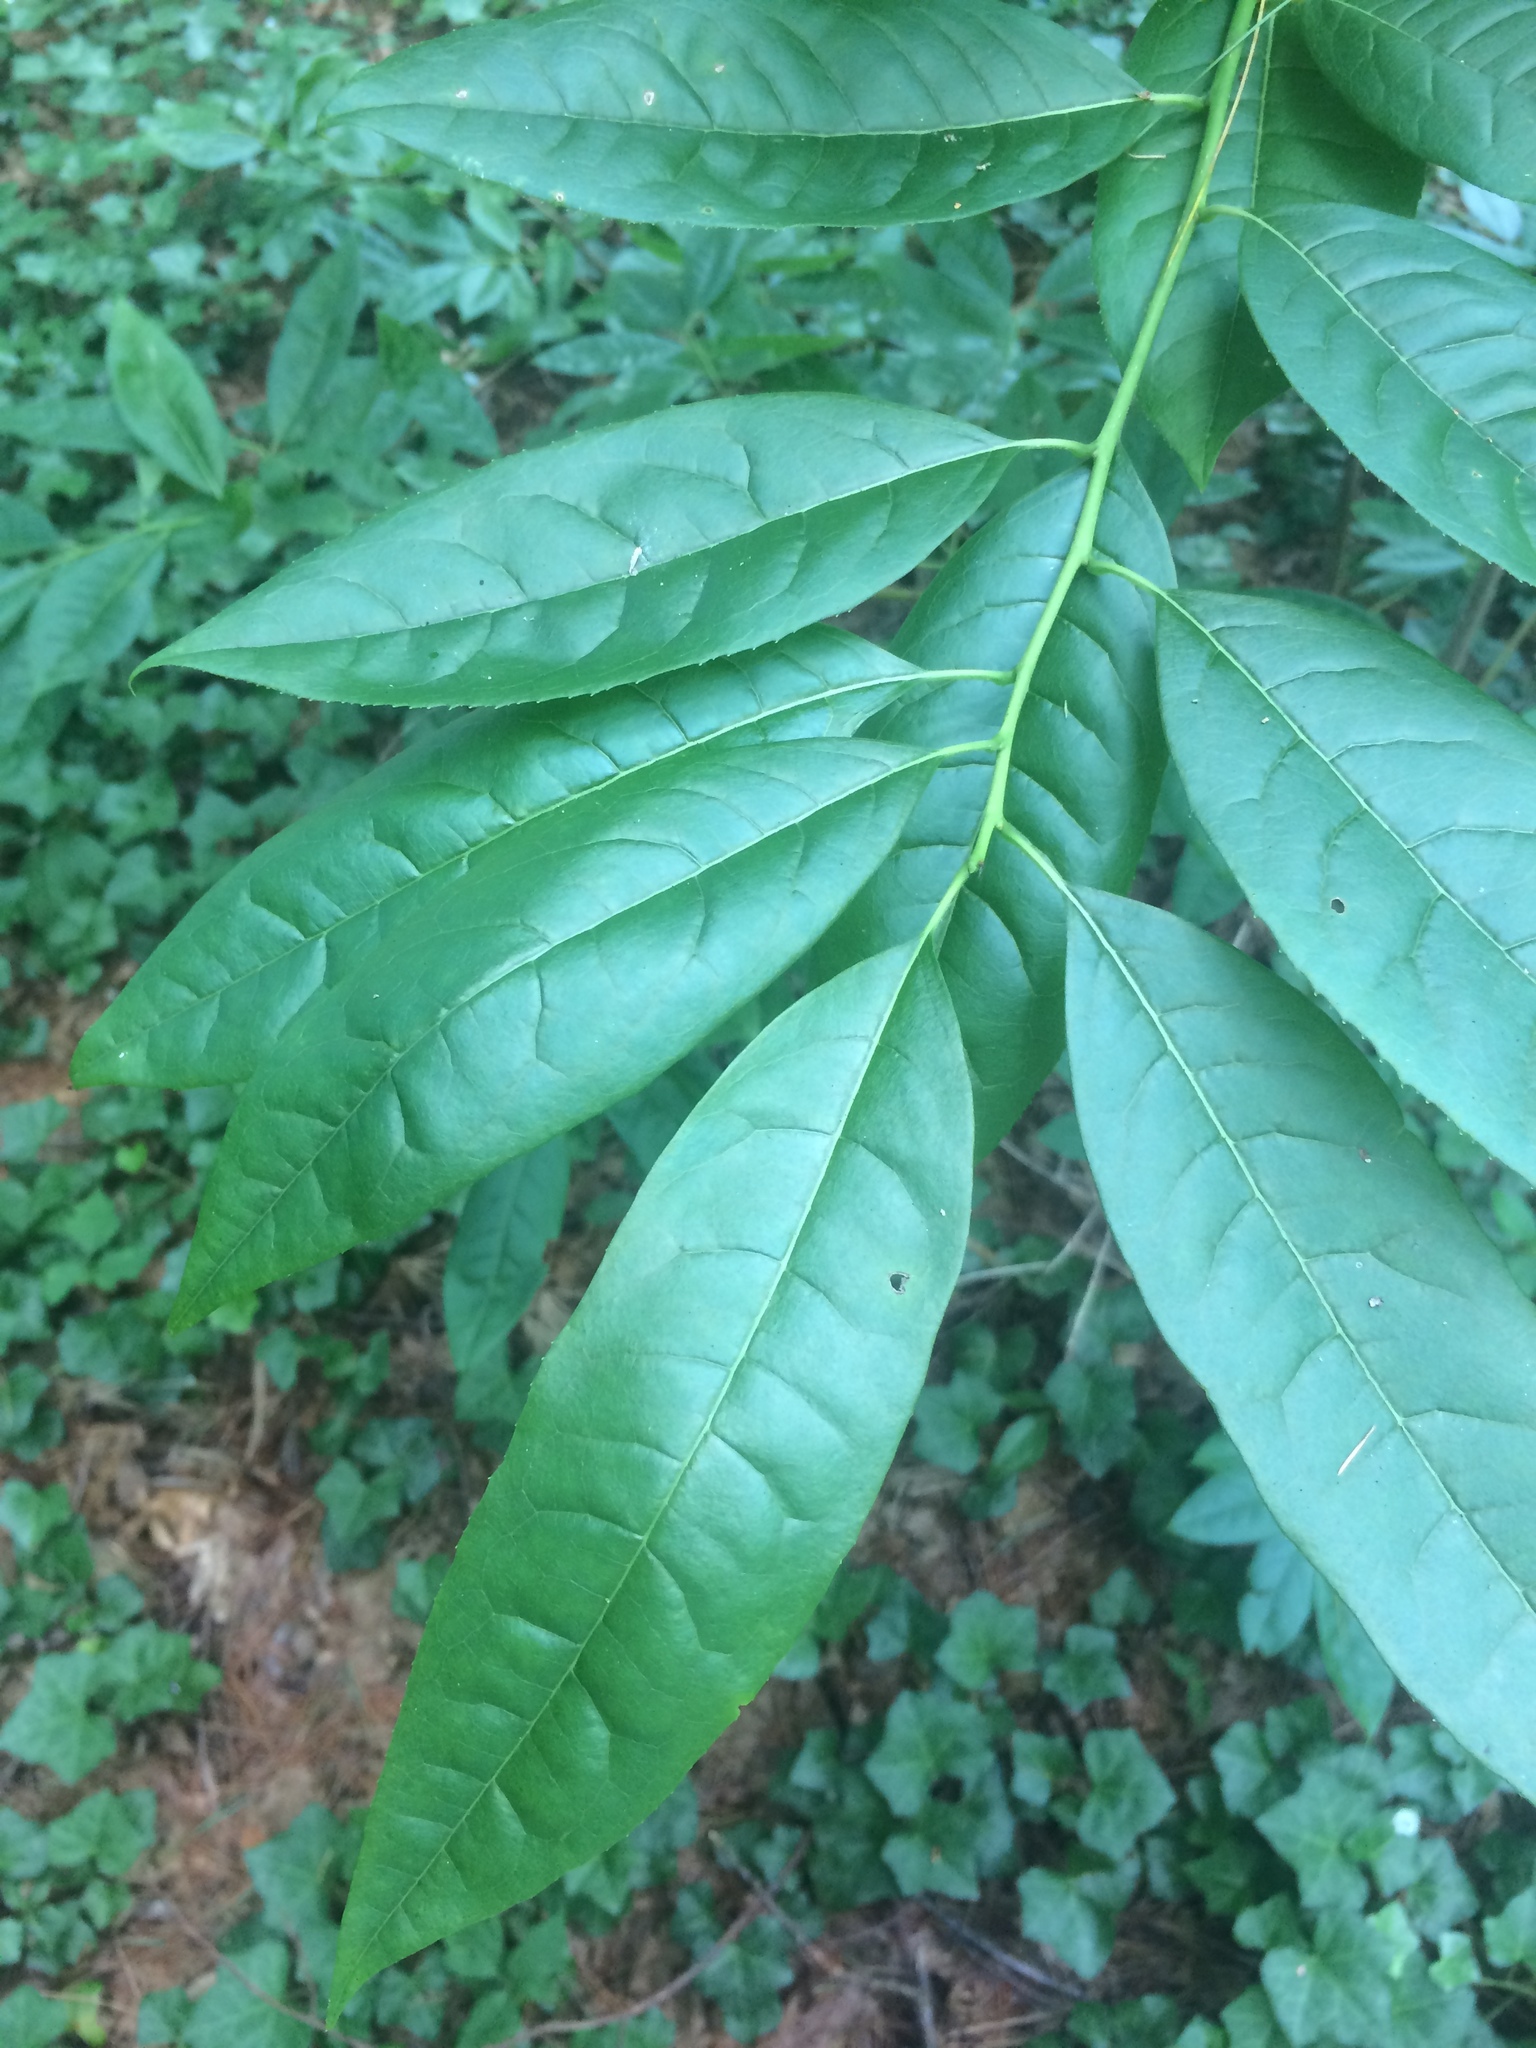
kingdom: Plantae
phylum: Tracheophyta
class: Magnoliopsida
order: Ericales
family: Ericaceae
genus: Oxydendrum
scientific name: Oxydendrum arboreum
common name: Sourwood
